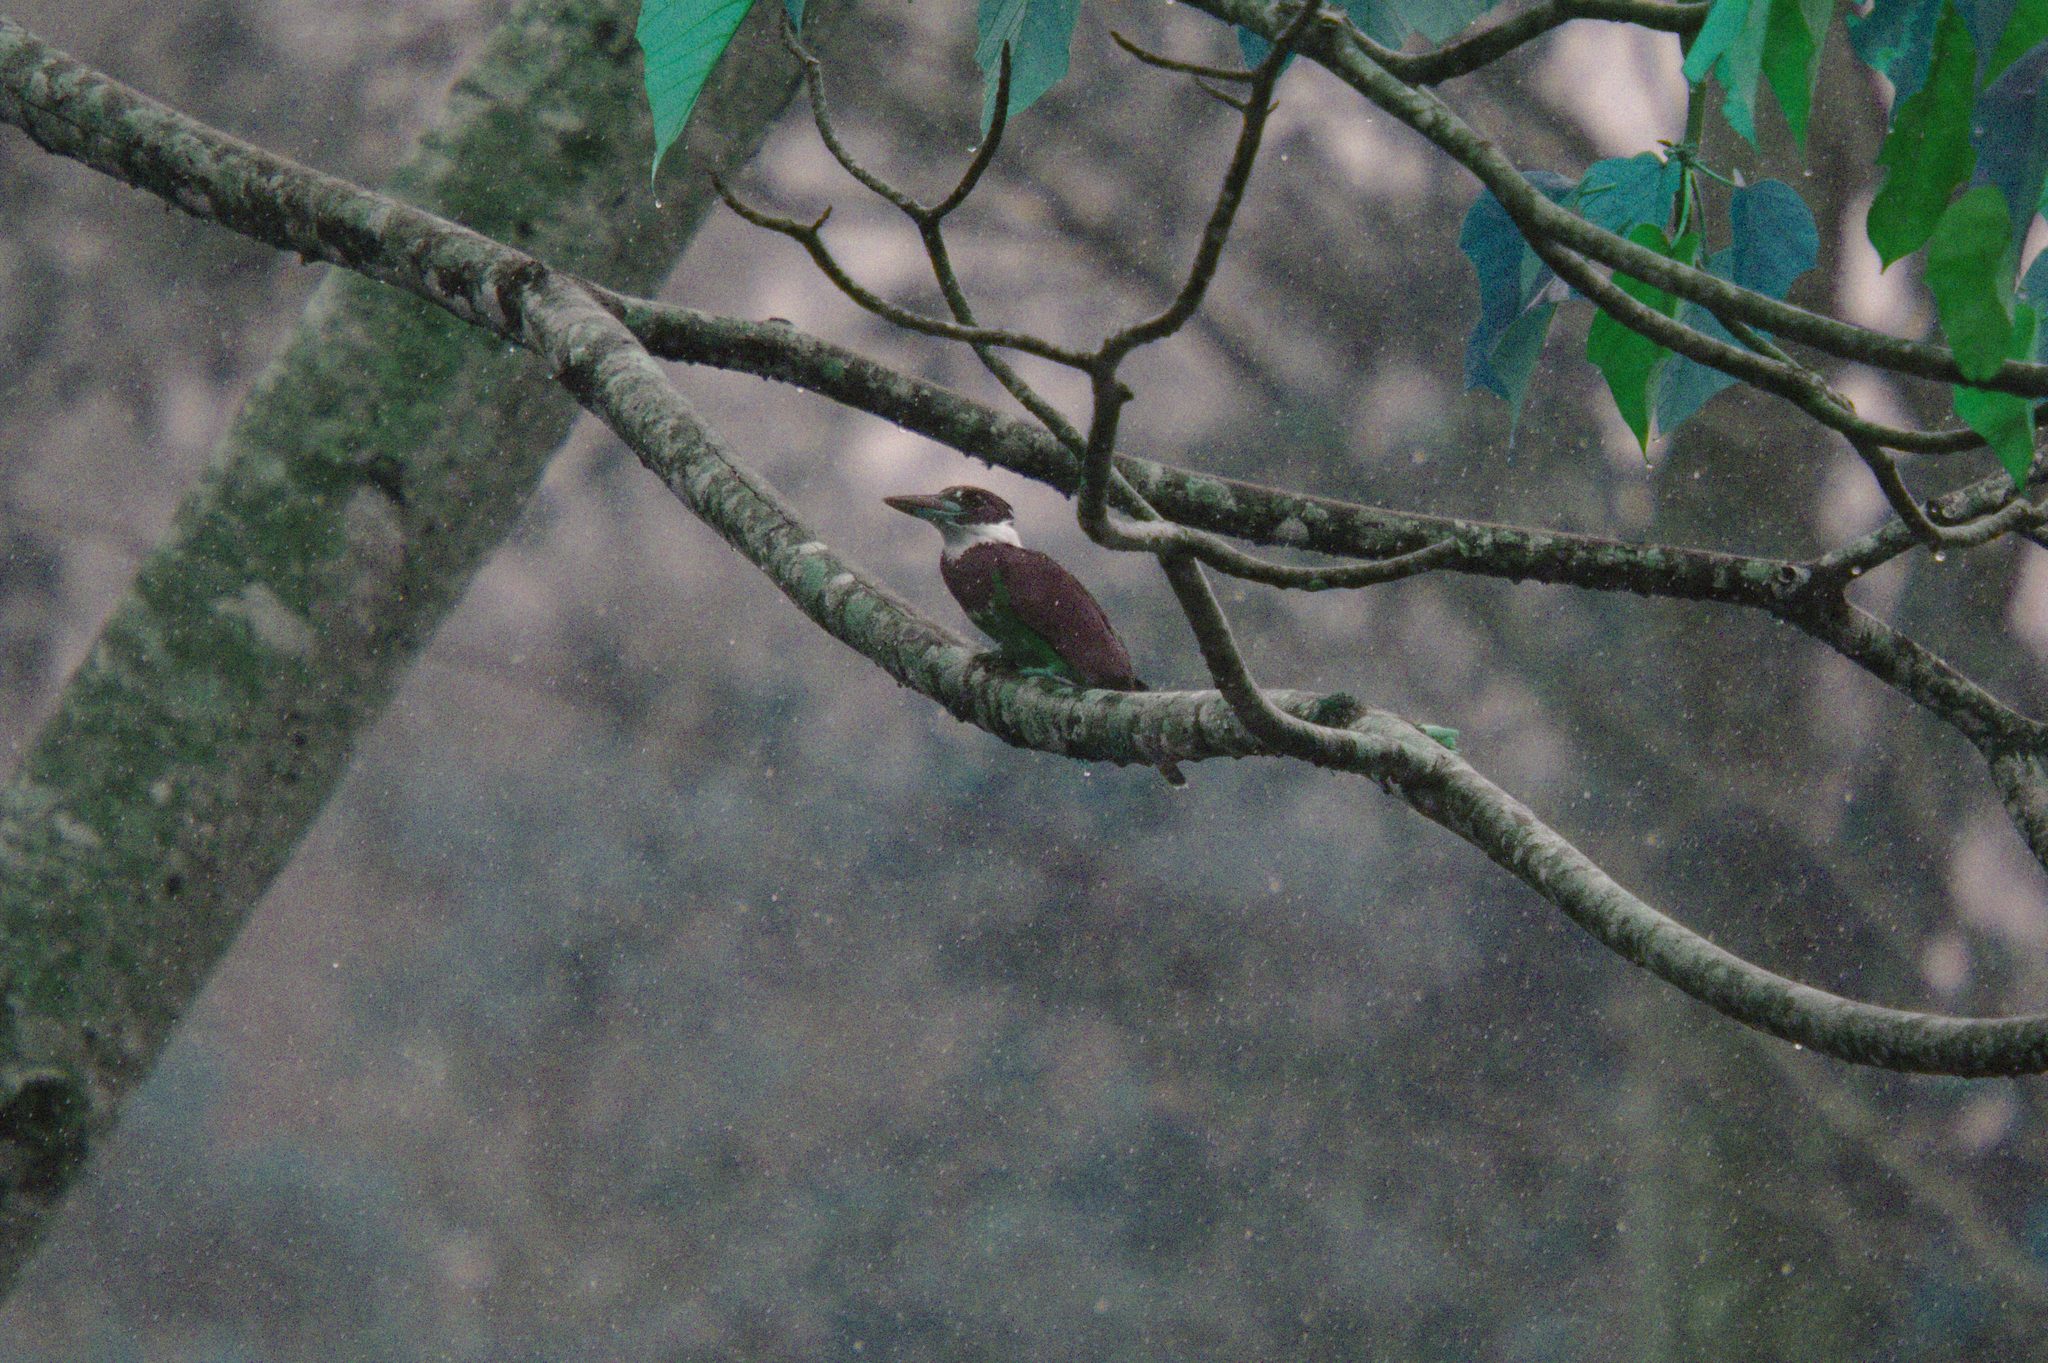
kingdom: Animalia
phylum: Chordata
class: Aves
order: Coraciiformes
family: Alcedinidae
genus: Megaceryle
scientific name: Megaceryle torquata
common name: Ringed kingfisher
